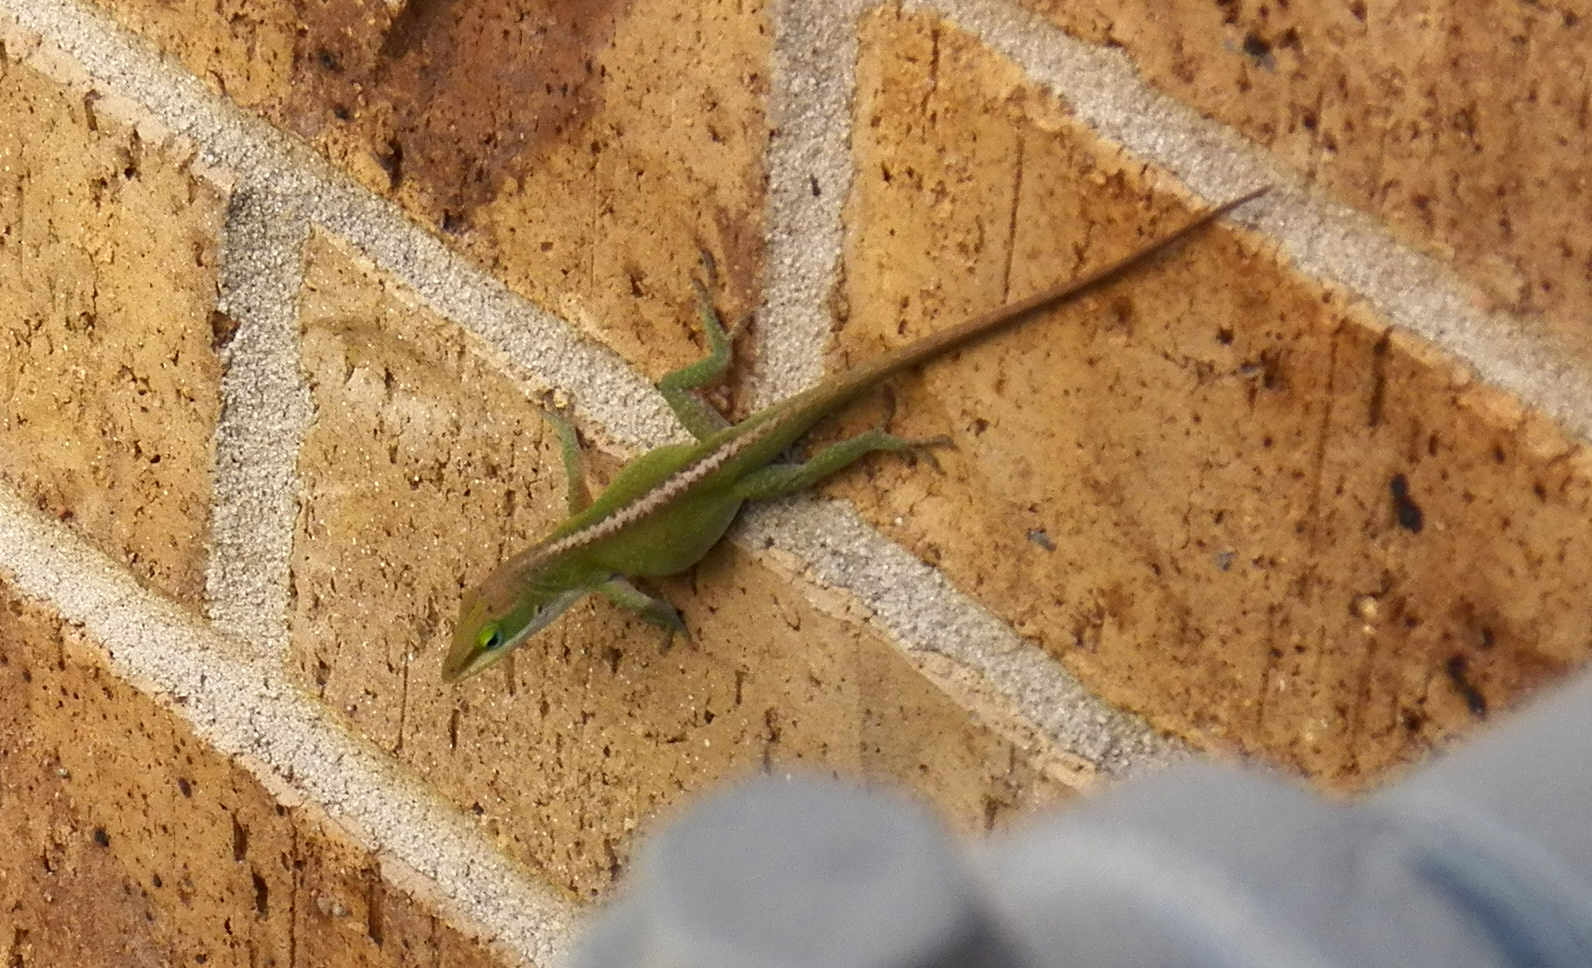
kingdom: Animalia
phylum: Chordata
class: Squamata
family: Dactyloidae
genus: Anolis
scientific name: Anolis carolinensis
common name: Green anole
